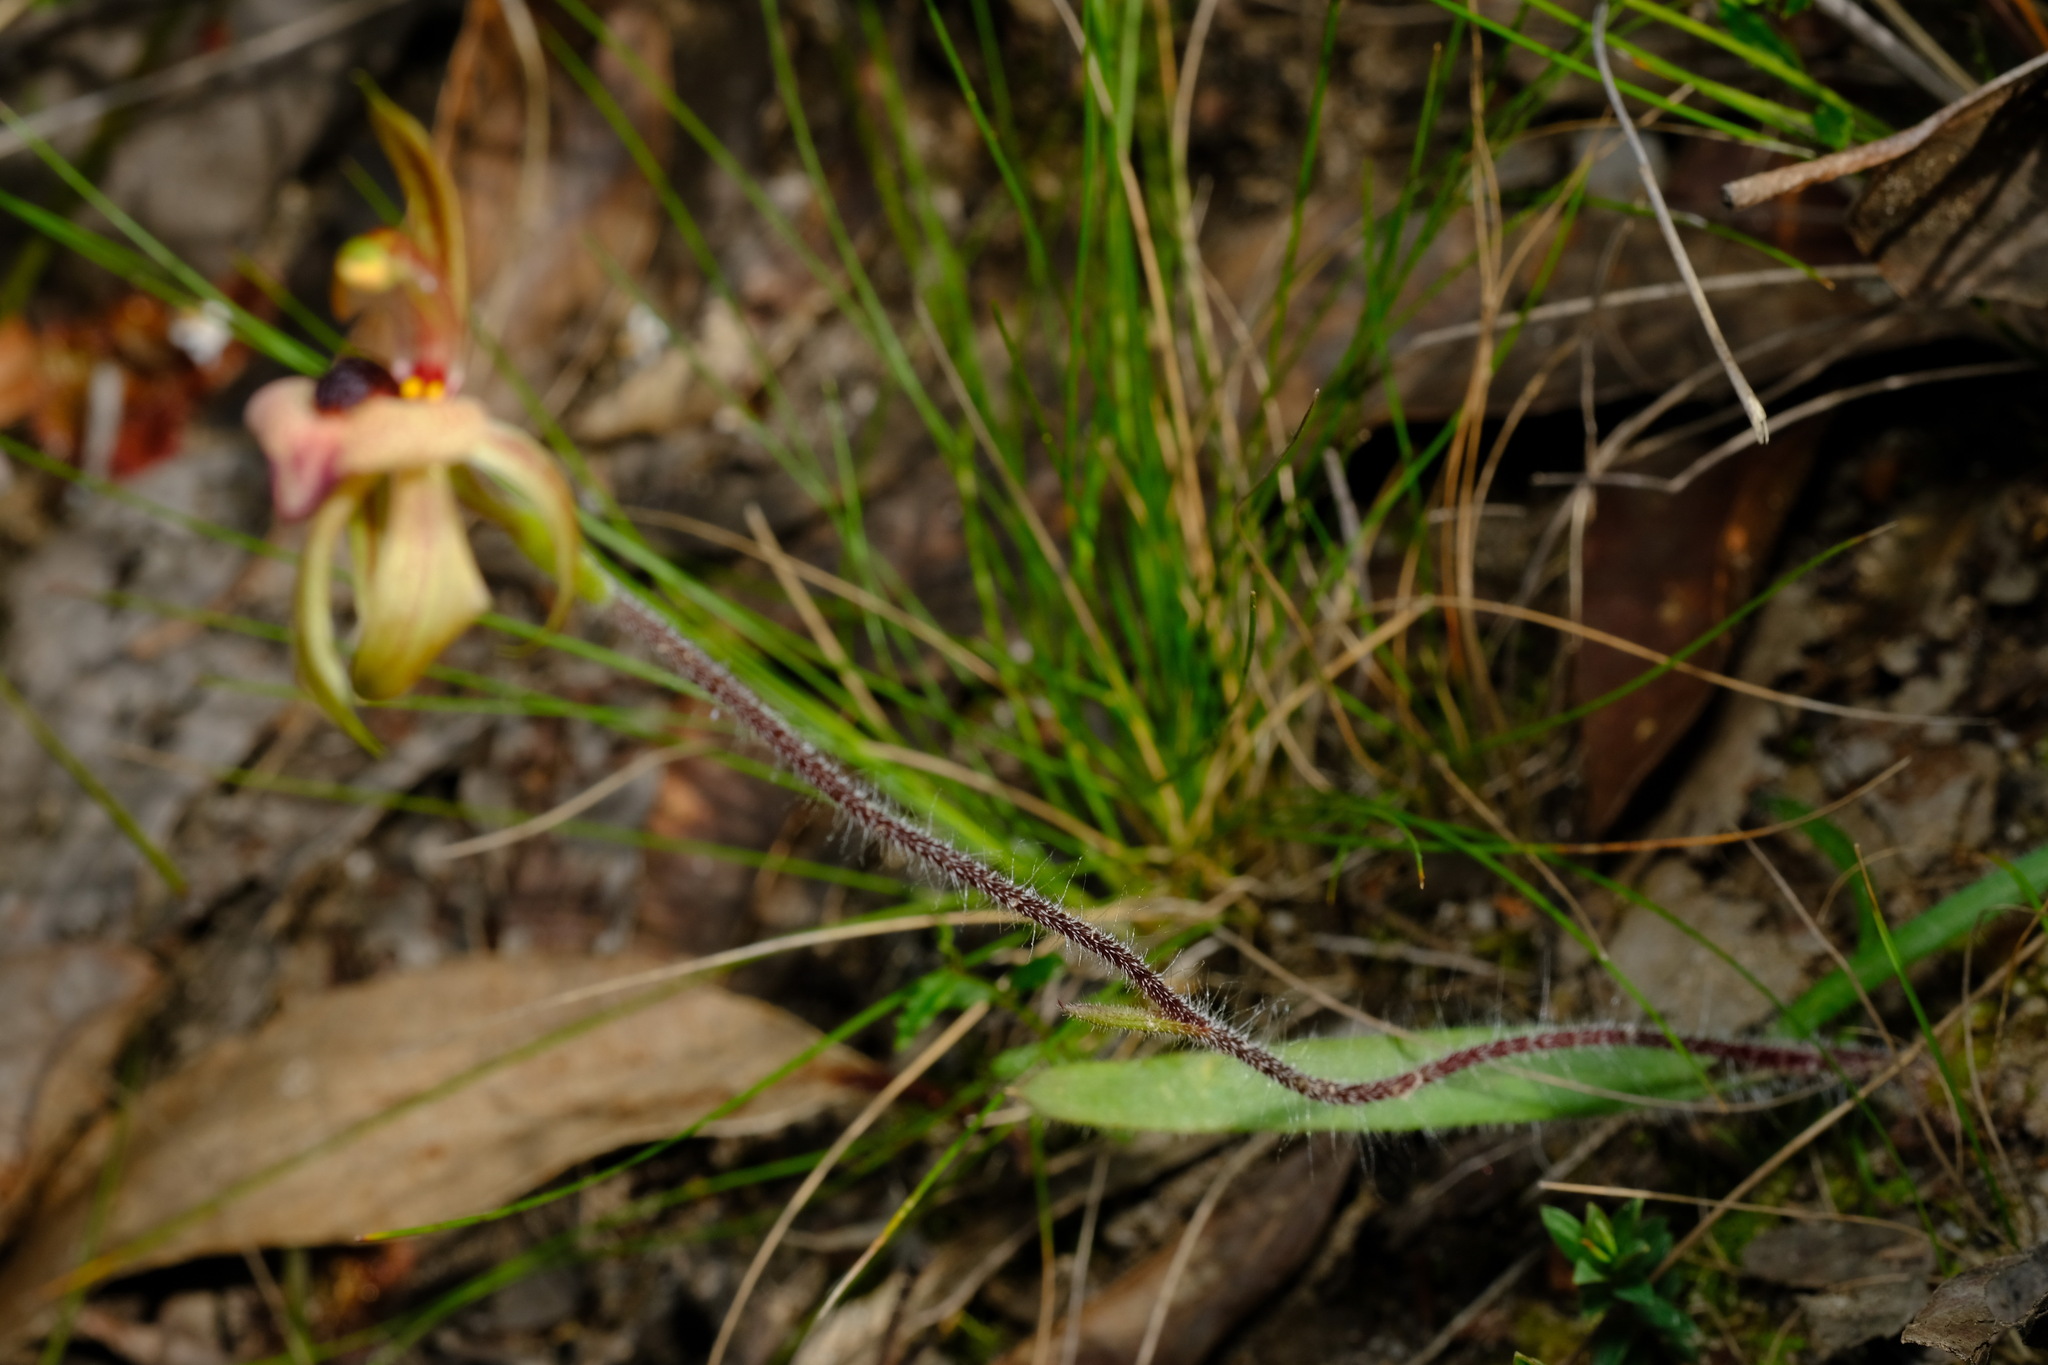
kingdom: Plantae
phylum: Tracheophyta
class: Liliopsida
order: Asparagales
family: Orchidaceae
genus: Caladenia
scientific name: Caladenia cardiochila
